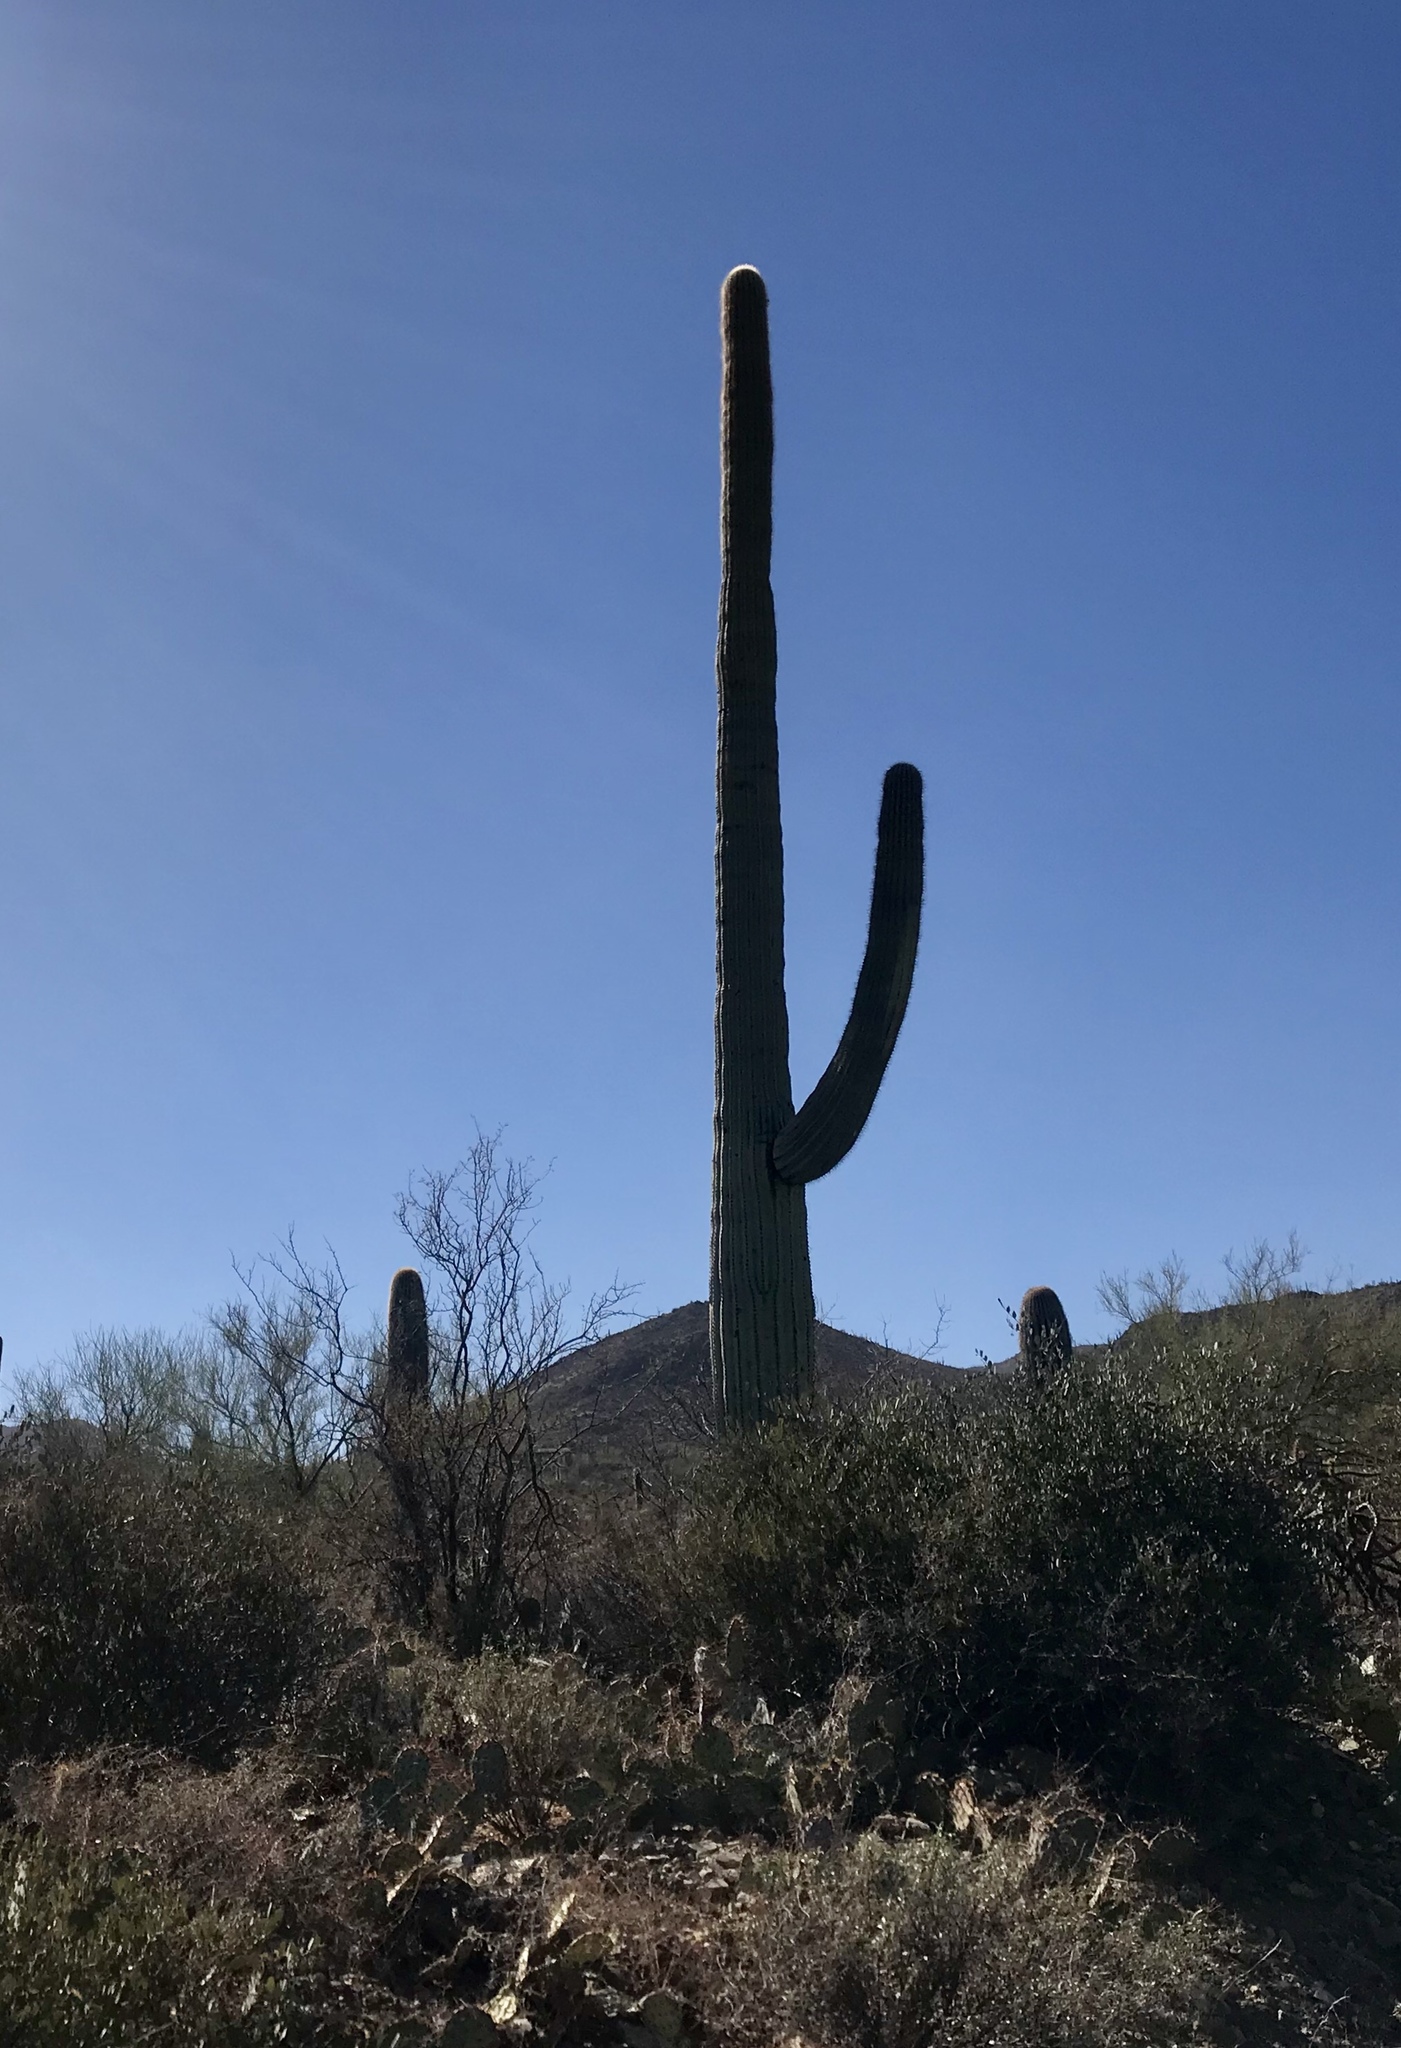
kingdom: Plantae
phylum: Tracheophyta
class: Magnoliopsida
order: Caryophyllales
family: Cactaceae
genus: Carnegiea
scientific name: Carnegiea gigantea
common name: Saguaro
